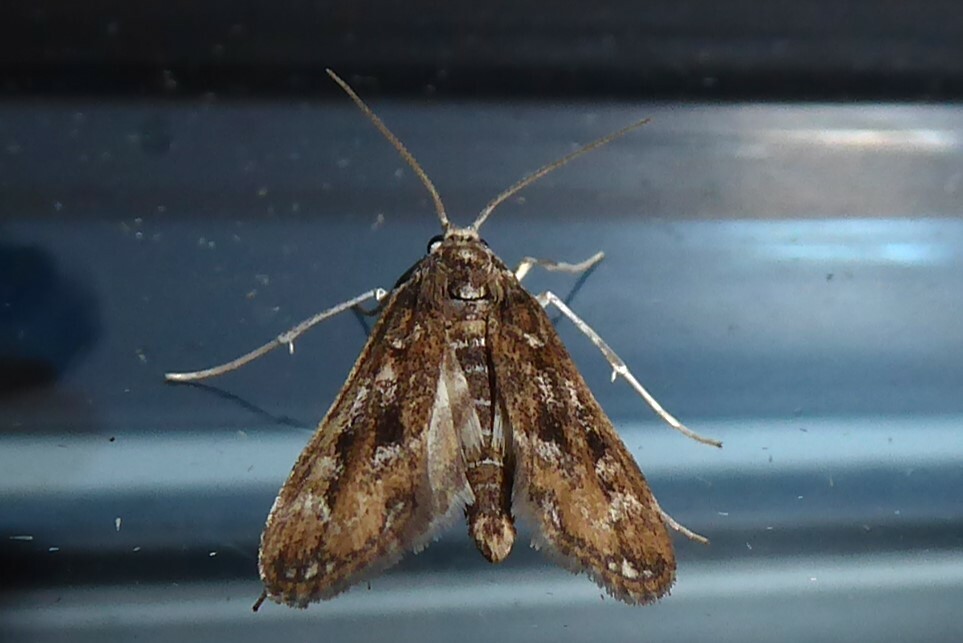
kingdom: Animalia
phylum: Arthropoda
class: Insecta
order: Lepidoptera
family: Crambidae
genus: Hygraula
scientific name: Hygraula nitens
